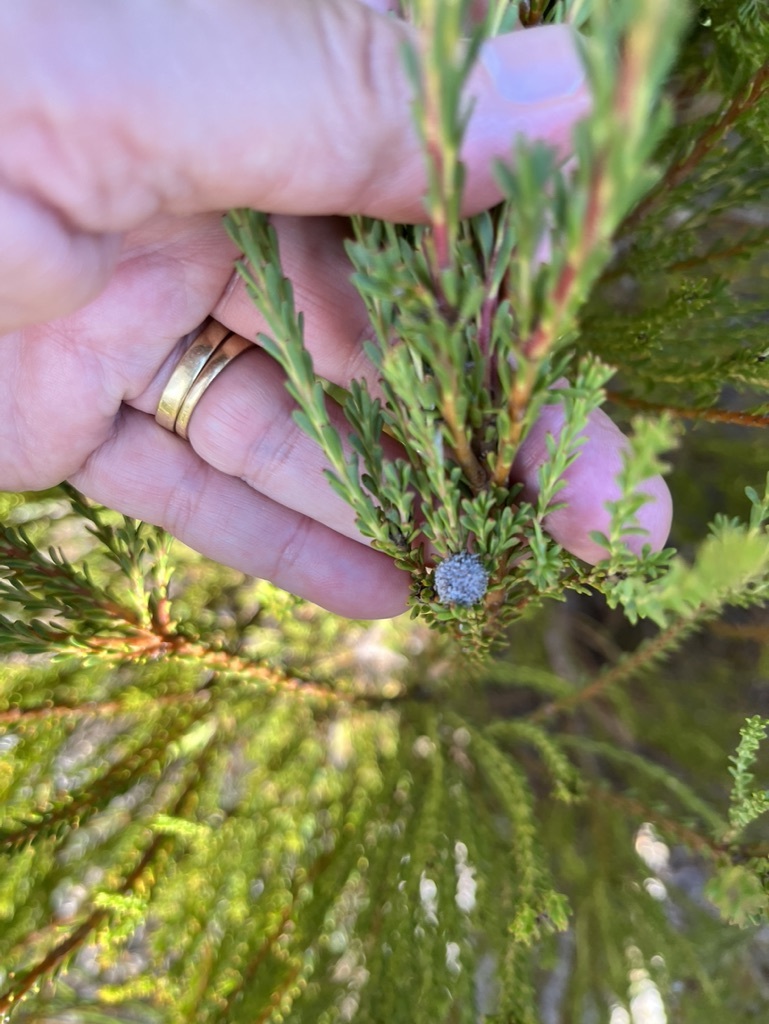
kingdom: Plantae
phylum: Tracheophyta
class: Magnoliopsida
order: Proteales
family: Proteaceae
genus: Leucadendron
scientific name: Leucadendron linifolium
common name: Line-leaf conebush
